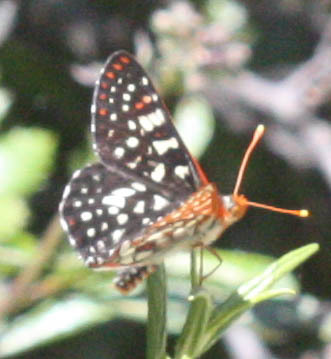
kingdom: Animalia
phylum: Arthropoda
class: Insecta
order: Lepidoptera
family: Nymphalidae
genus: Occidryas
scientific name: Occidryas chalcedona
